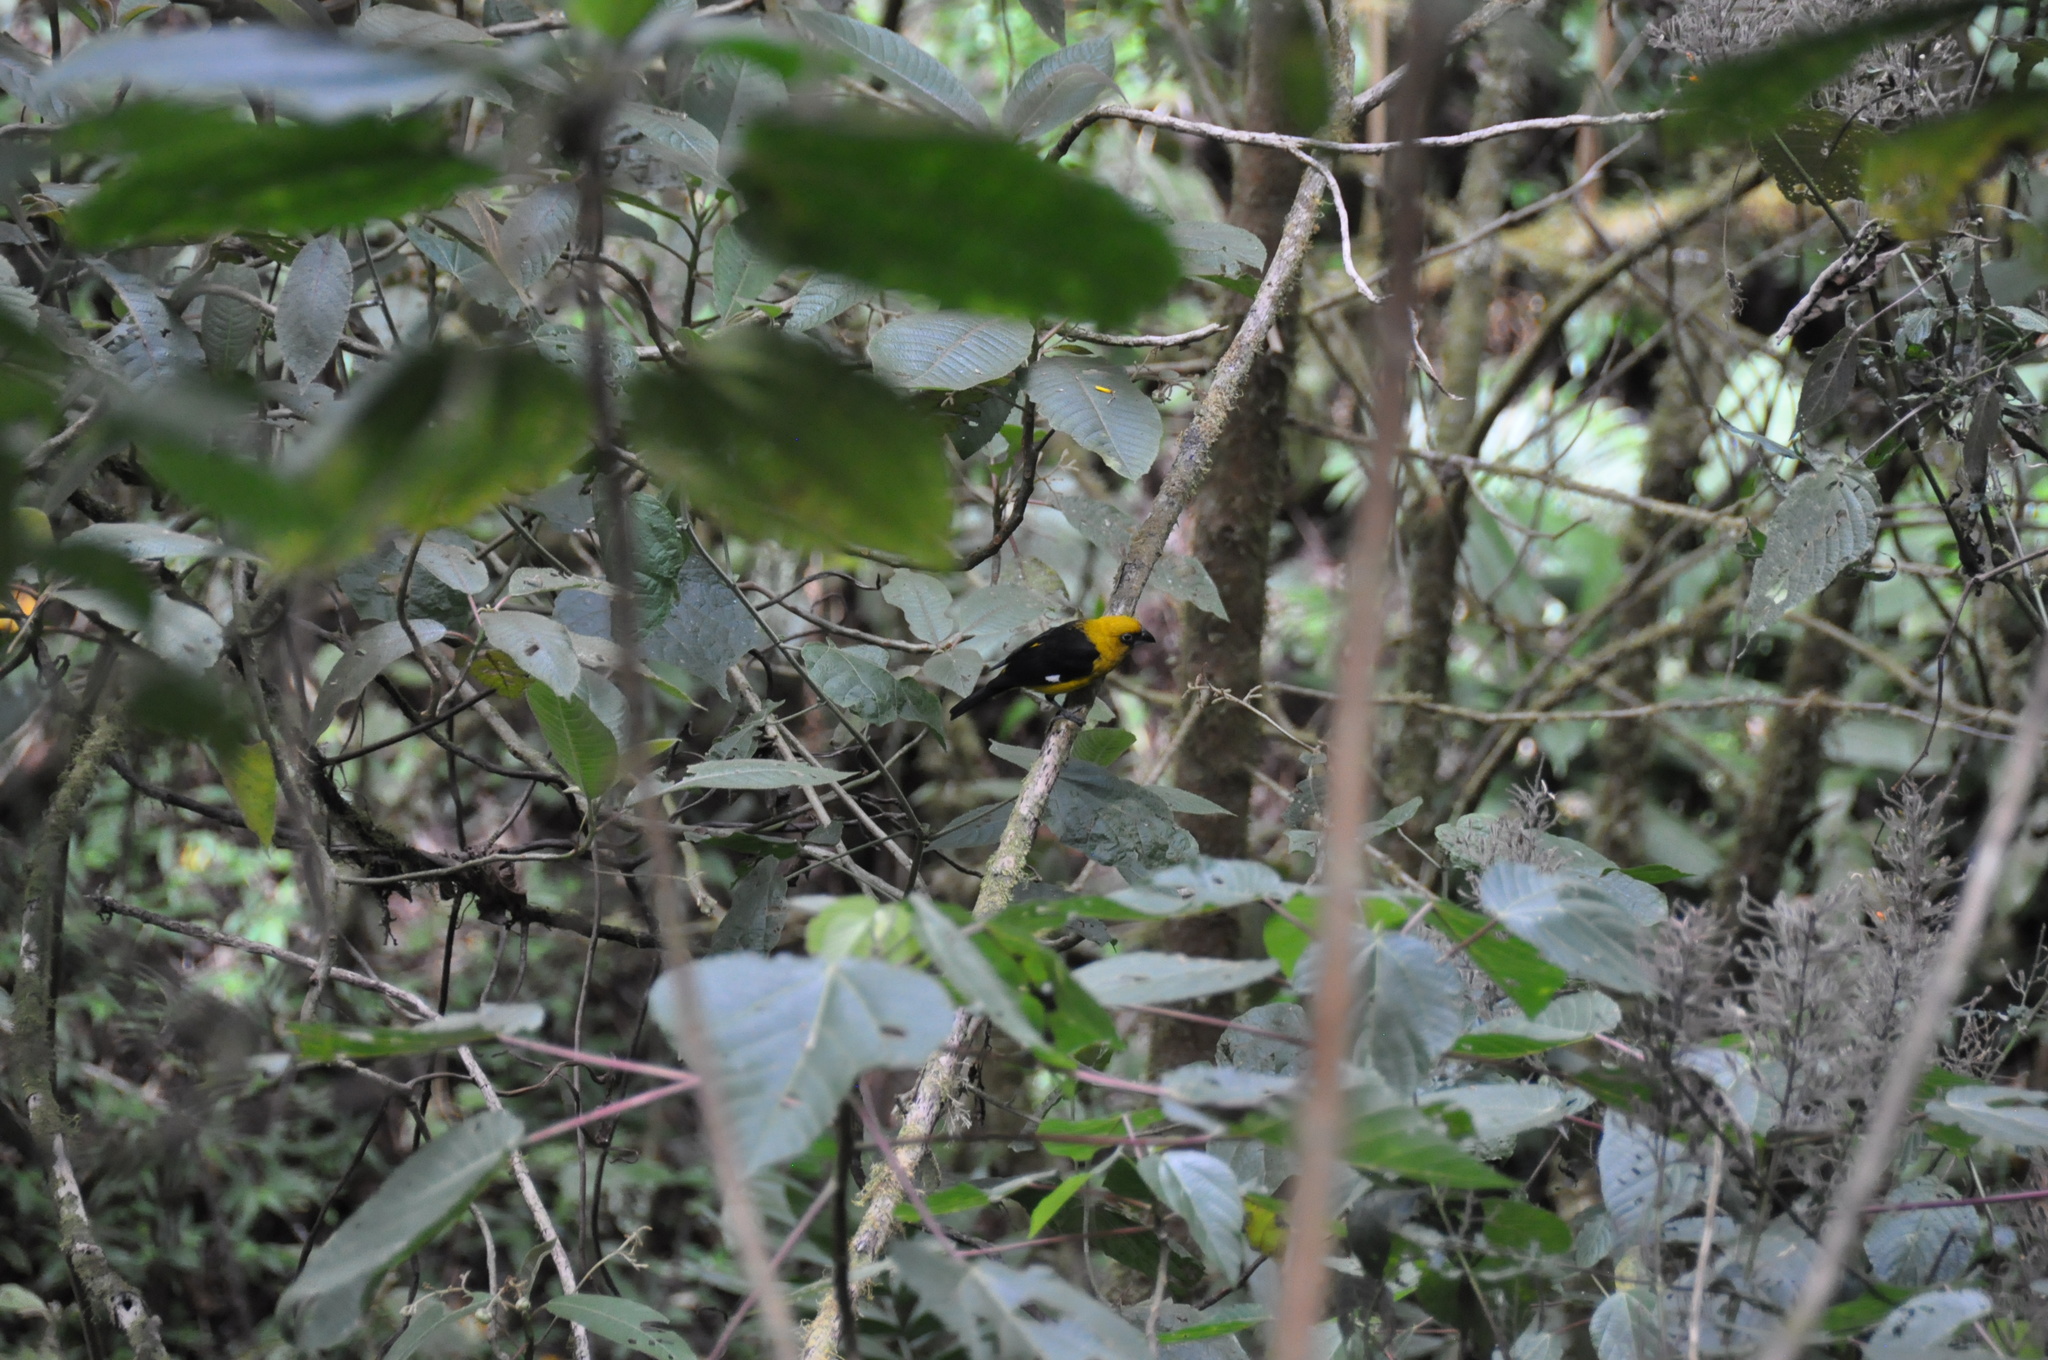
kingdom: Animalia
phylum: Chordata
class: Aves
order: Passeriformes
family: Cardinalidae
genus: Pheucticus
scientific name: Pheucticus tibialis
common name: Black-thighed grosbeak
